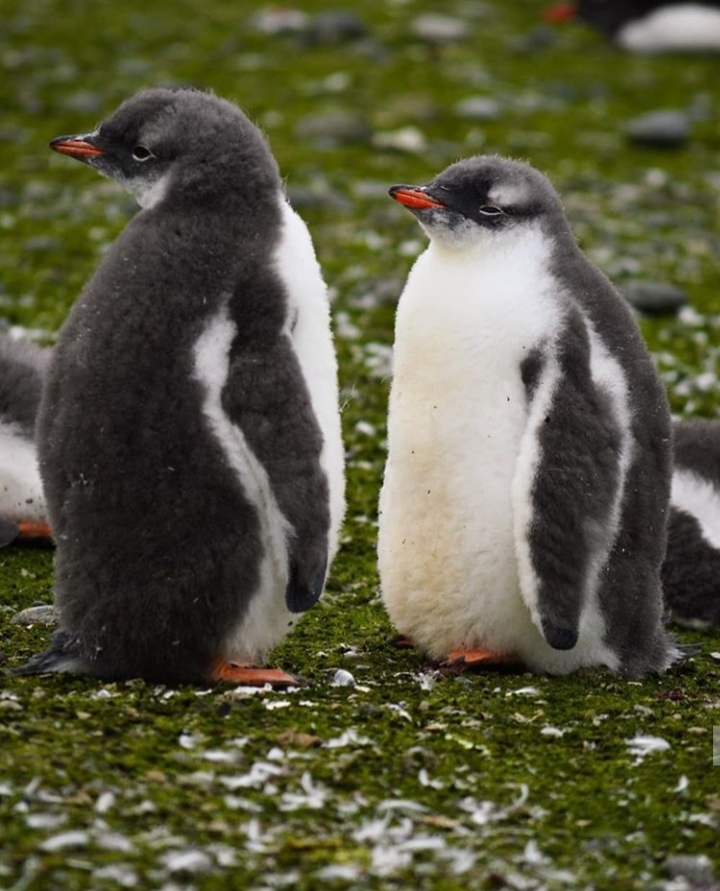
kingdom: Animalia
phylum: Chordata
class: Aves
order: Sphenisciformes
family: Spheniscidae
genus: Pygoscelis
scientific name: Pygoscelis papua
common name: Gentoo penguin
